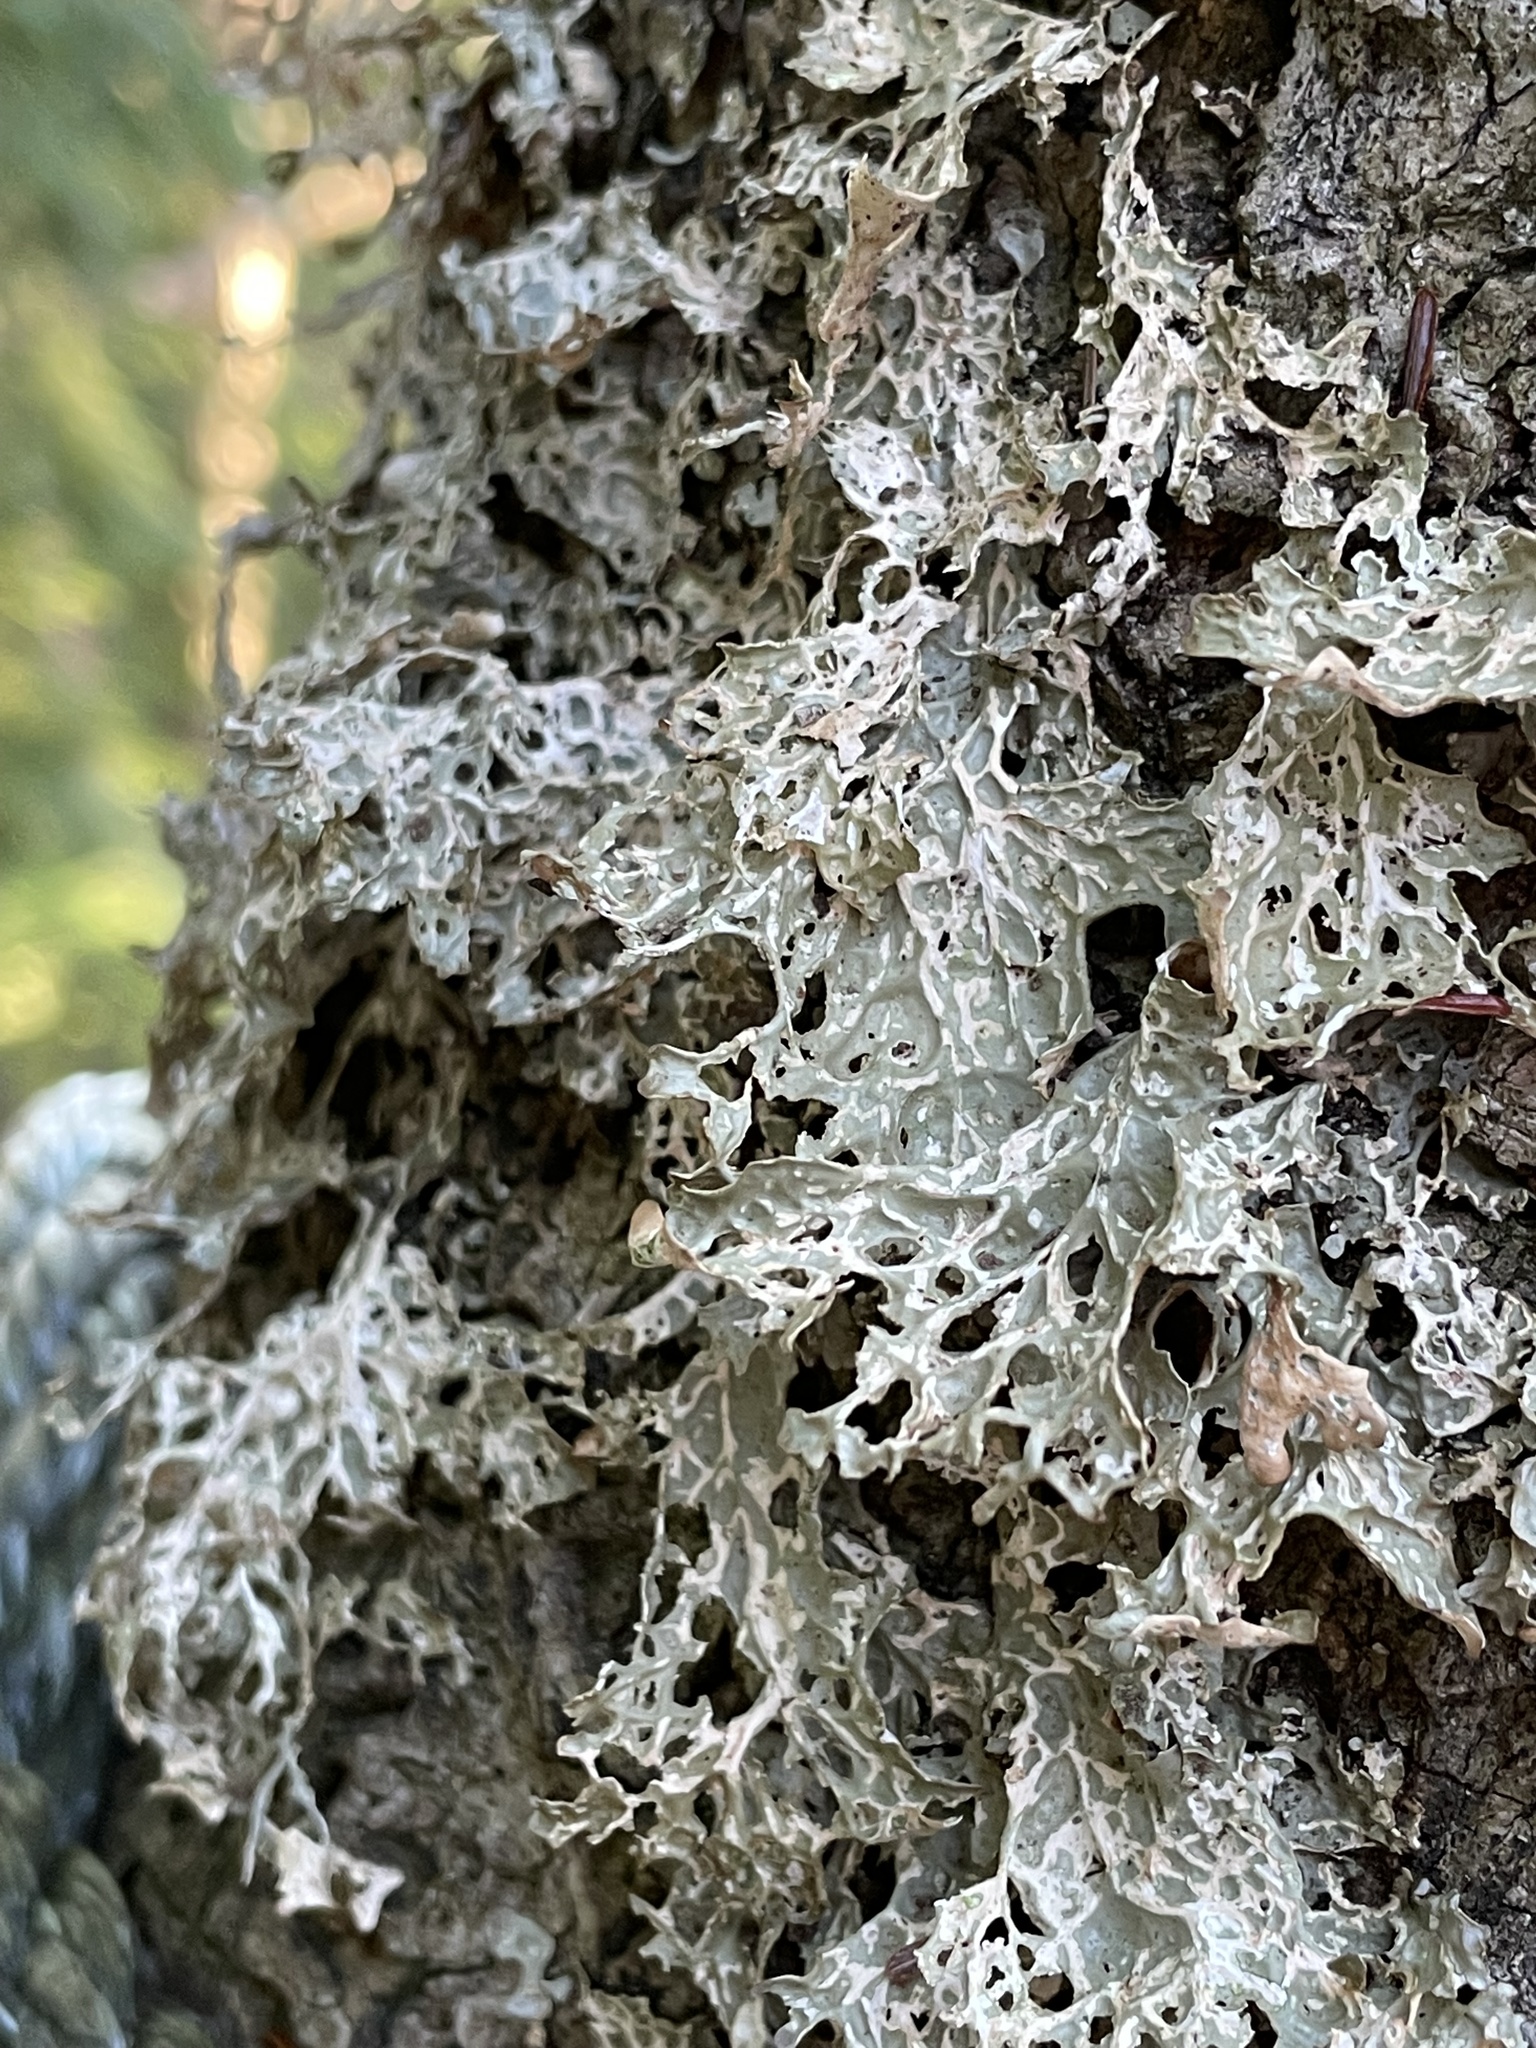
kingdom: Fungi
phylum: Ascomycota
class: Lecanoromycetes
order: Peltigerales
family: Lobariaceae
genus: Lobaria
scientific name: Lobaria pulmonaria
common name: Lungwort
